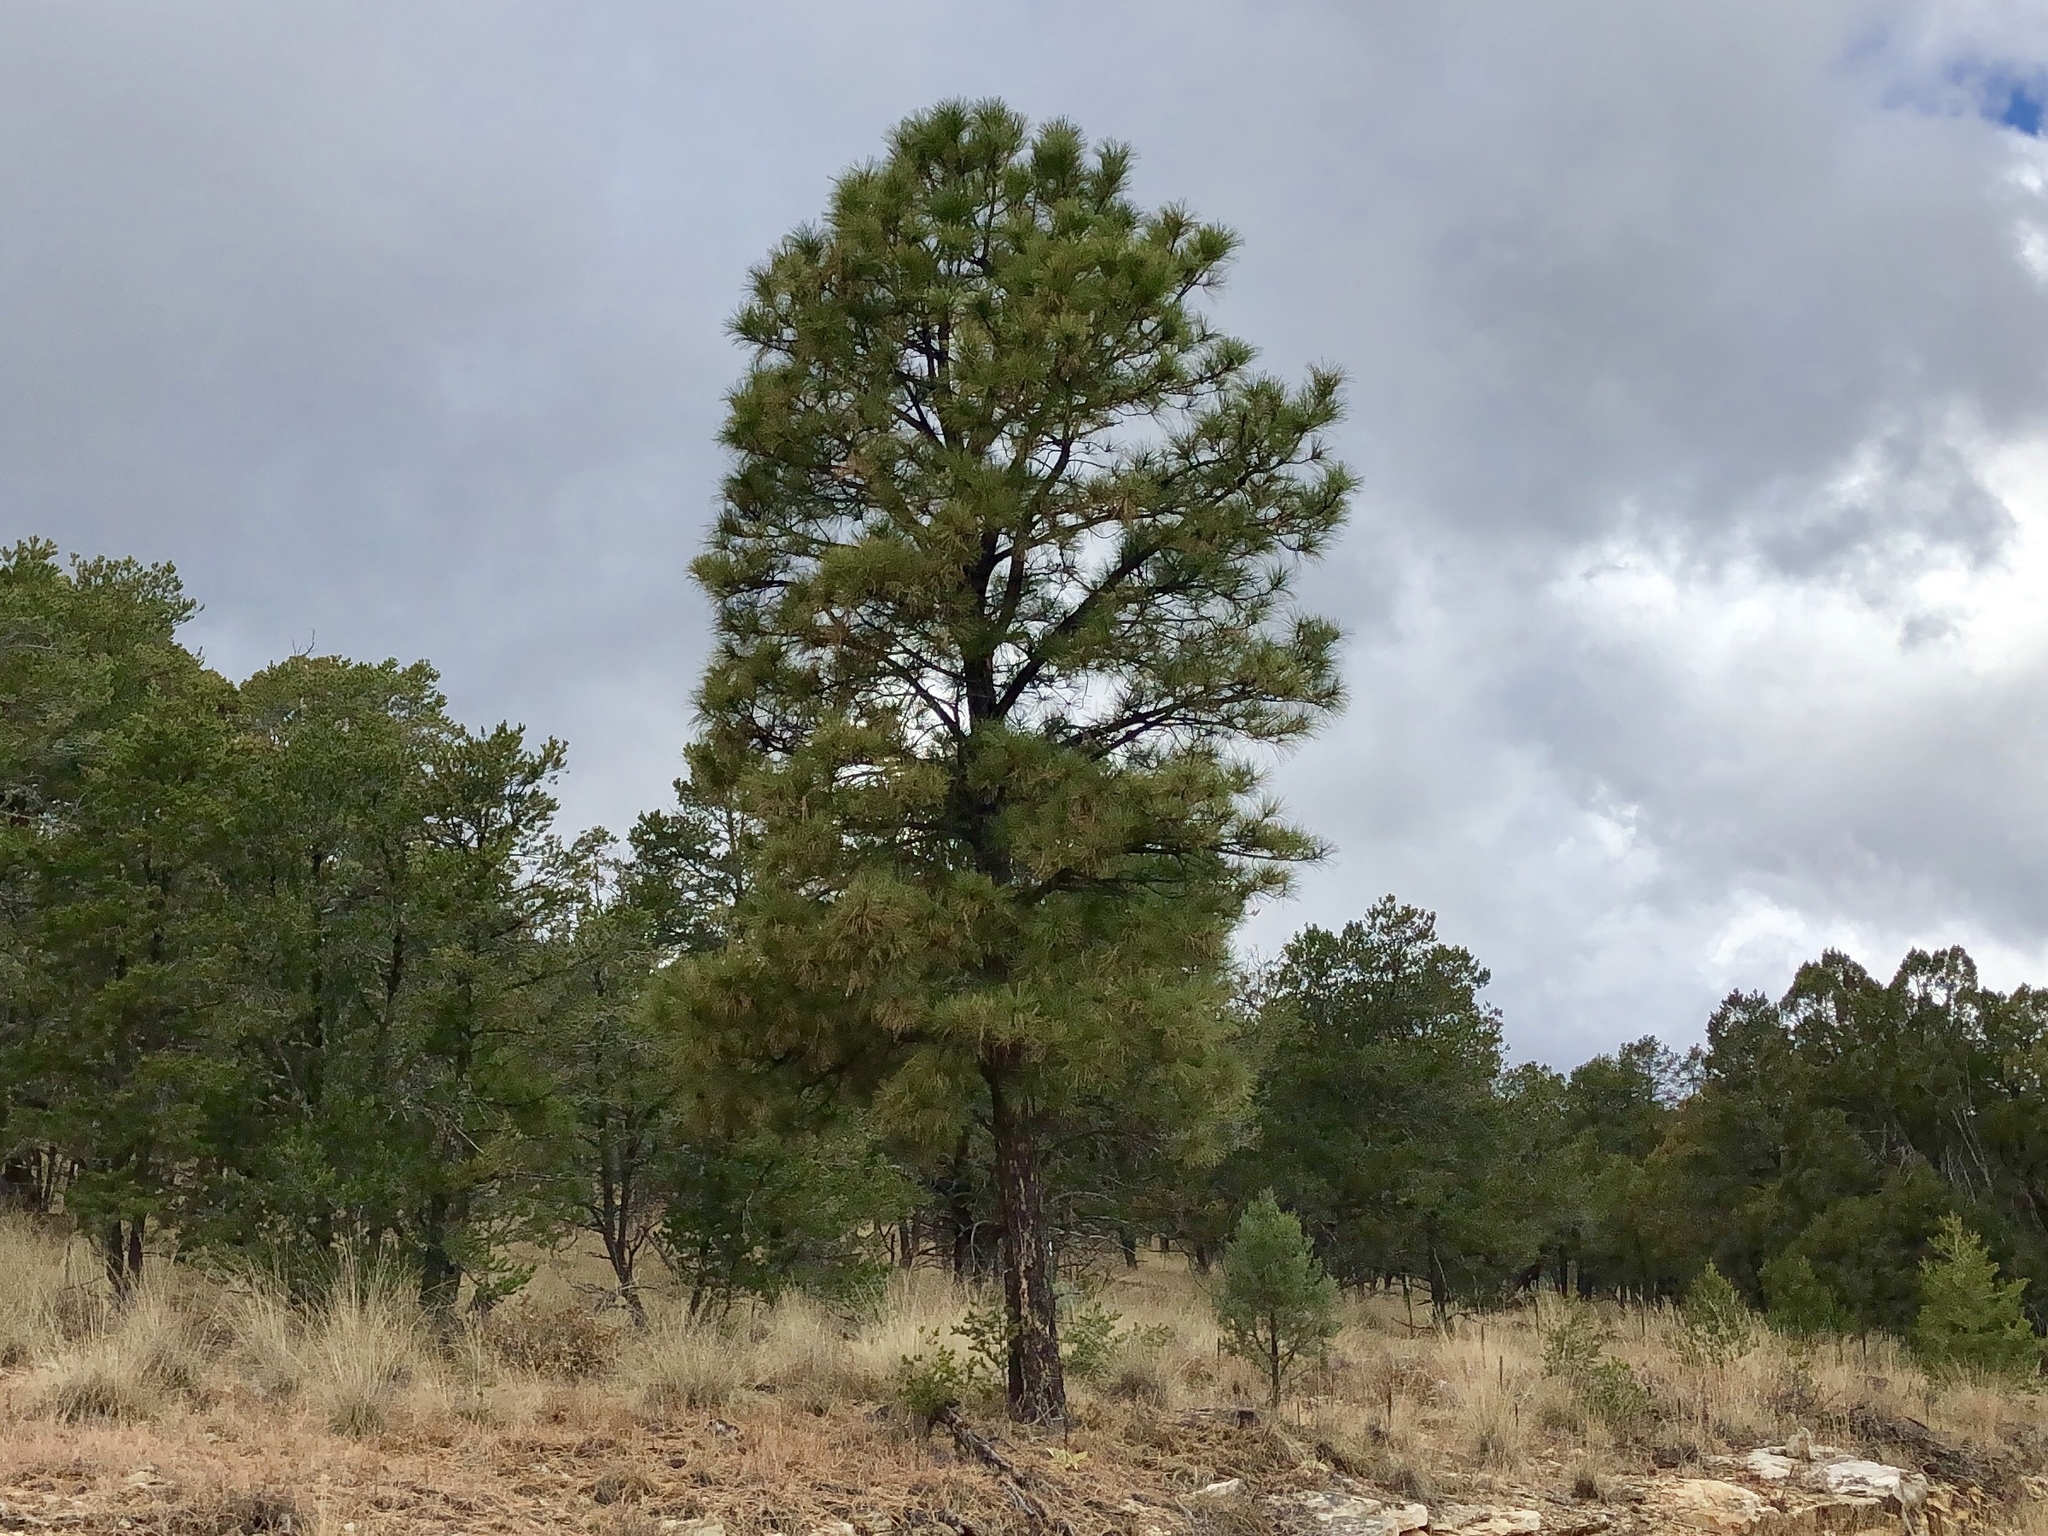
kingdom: Plantae
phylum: Tracheophyta
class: Pinopsida
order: Pinales
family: Pinaceae
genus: Pinus
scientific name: Pinus ponderosa
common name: Western yellow-pine
